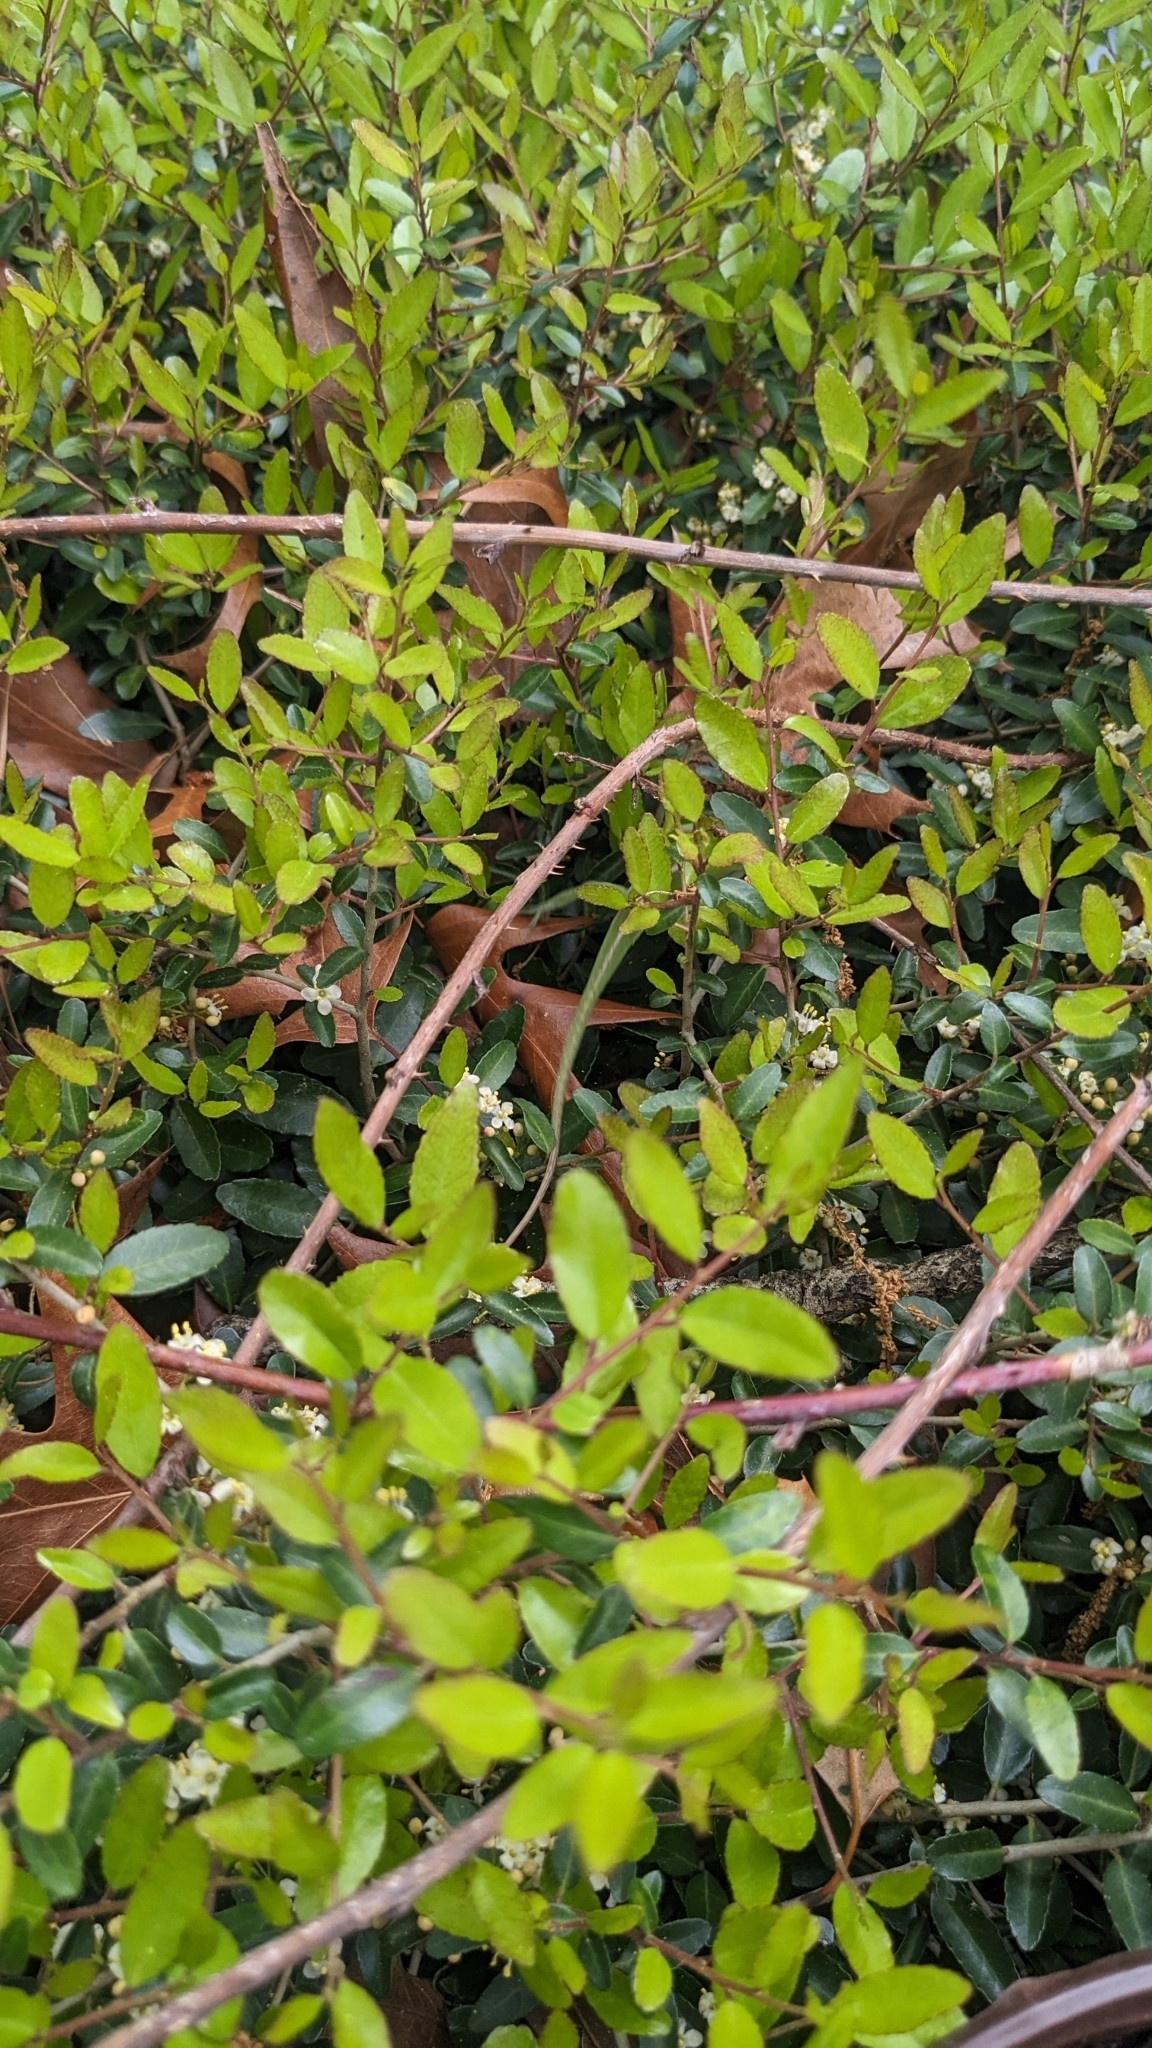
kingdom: Animalia
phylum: Chordata
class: Squamata
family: Dactyloidae
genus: Anolis
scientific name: Anolis carolinensis
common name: Green anole
